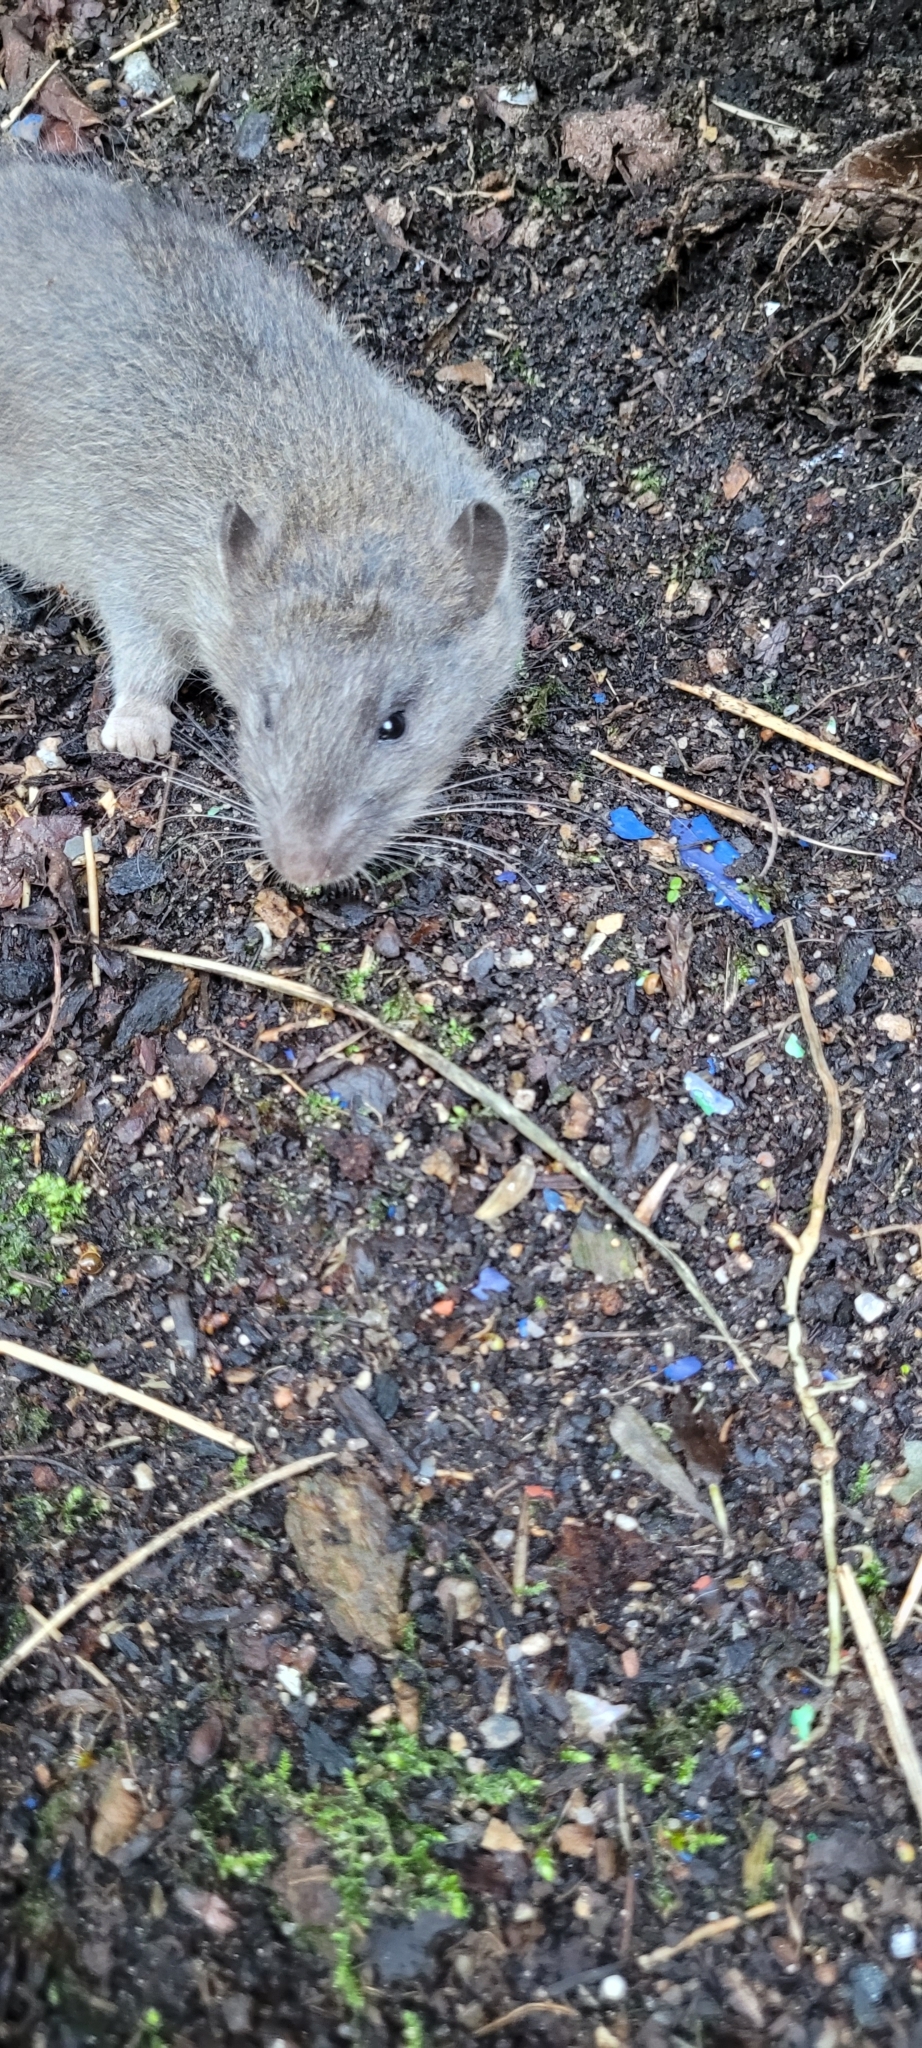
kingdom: Animalia
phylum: Chordata
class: Mammalia
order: Rodentia
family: Muridae
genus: Rattus
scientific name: Rattus norvegicus
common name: Brown rat
